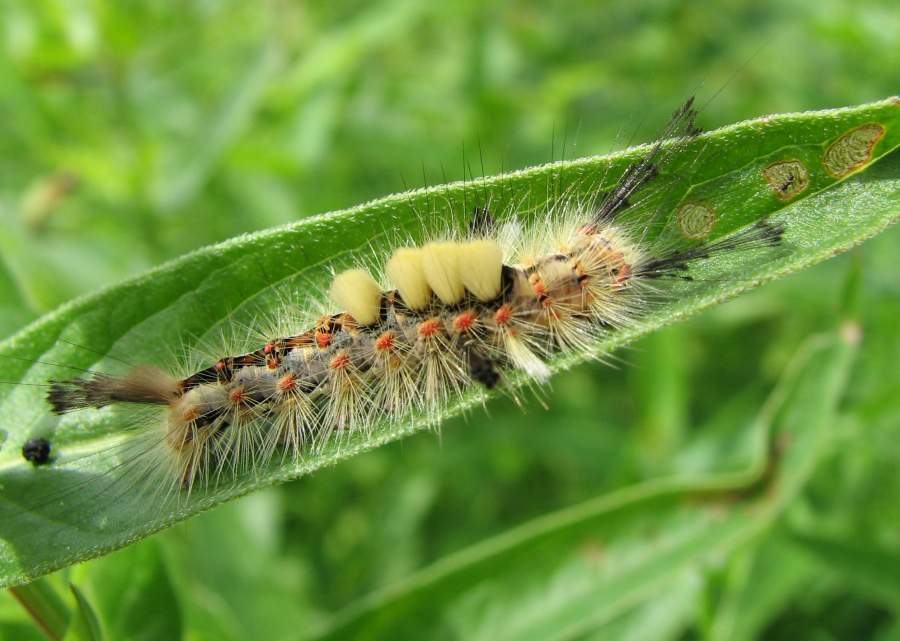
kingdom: Animalia
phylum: Arthropoda
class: Insecta
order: Lepidoptera
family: Erebidae
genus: Orgyia
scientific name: Orgyia antiqua
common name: Vapourer
